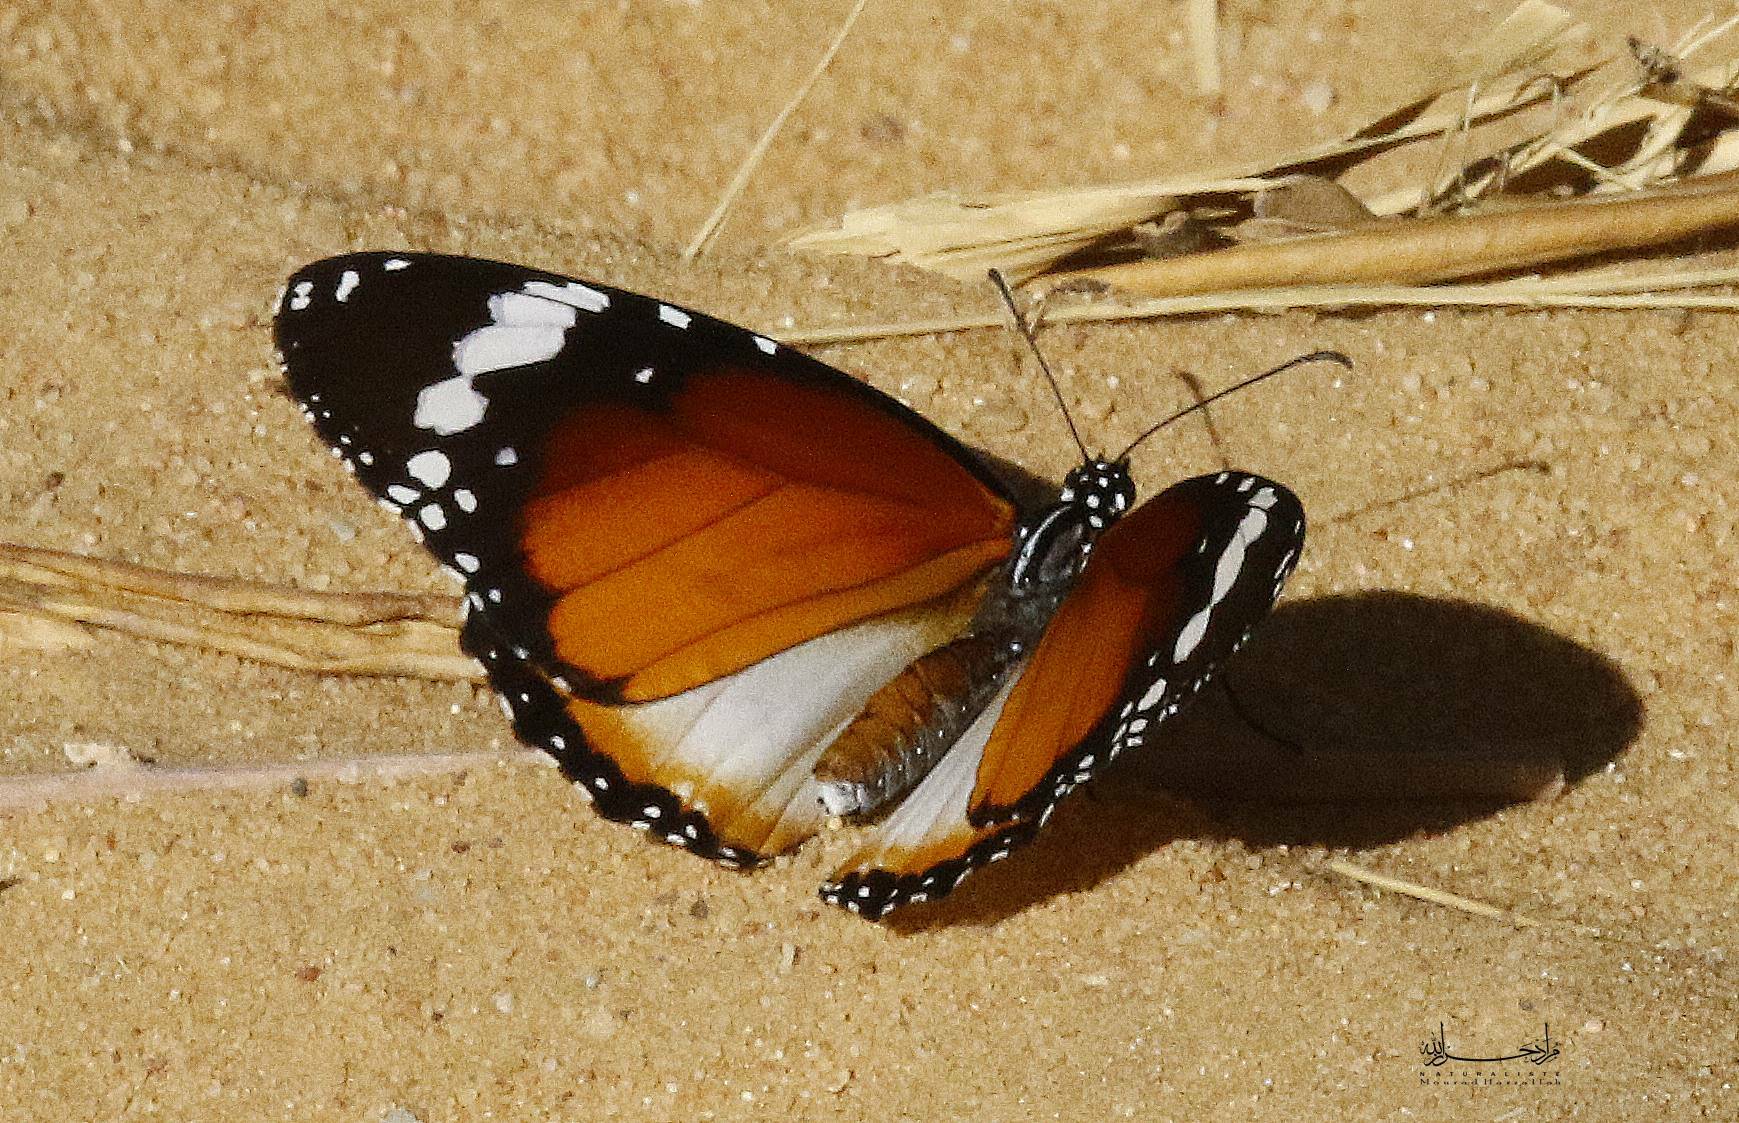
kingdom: Animalia
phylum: Arthropoda
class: Insecta
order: Lepidoptera
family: Nymphalidae
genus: Danaus
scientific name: Danaus chrysippus
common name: Plain tiger
